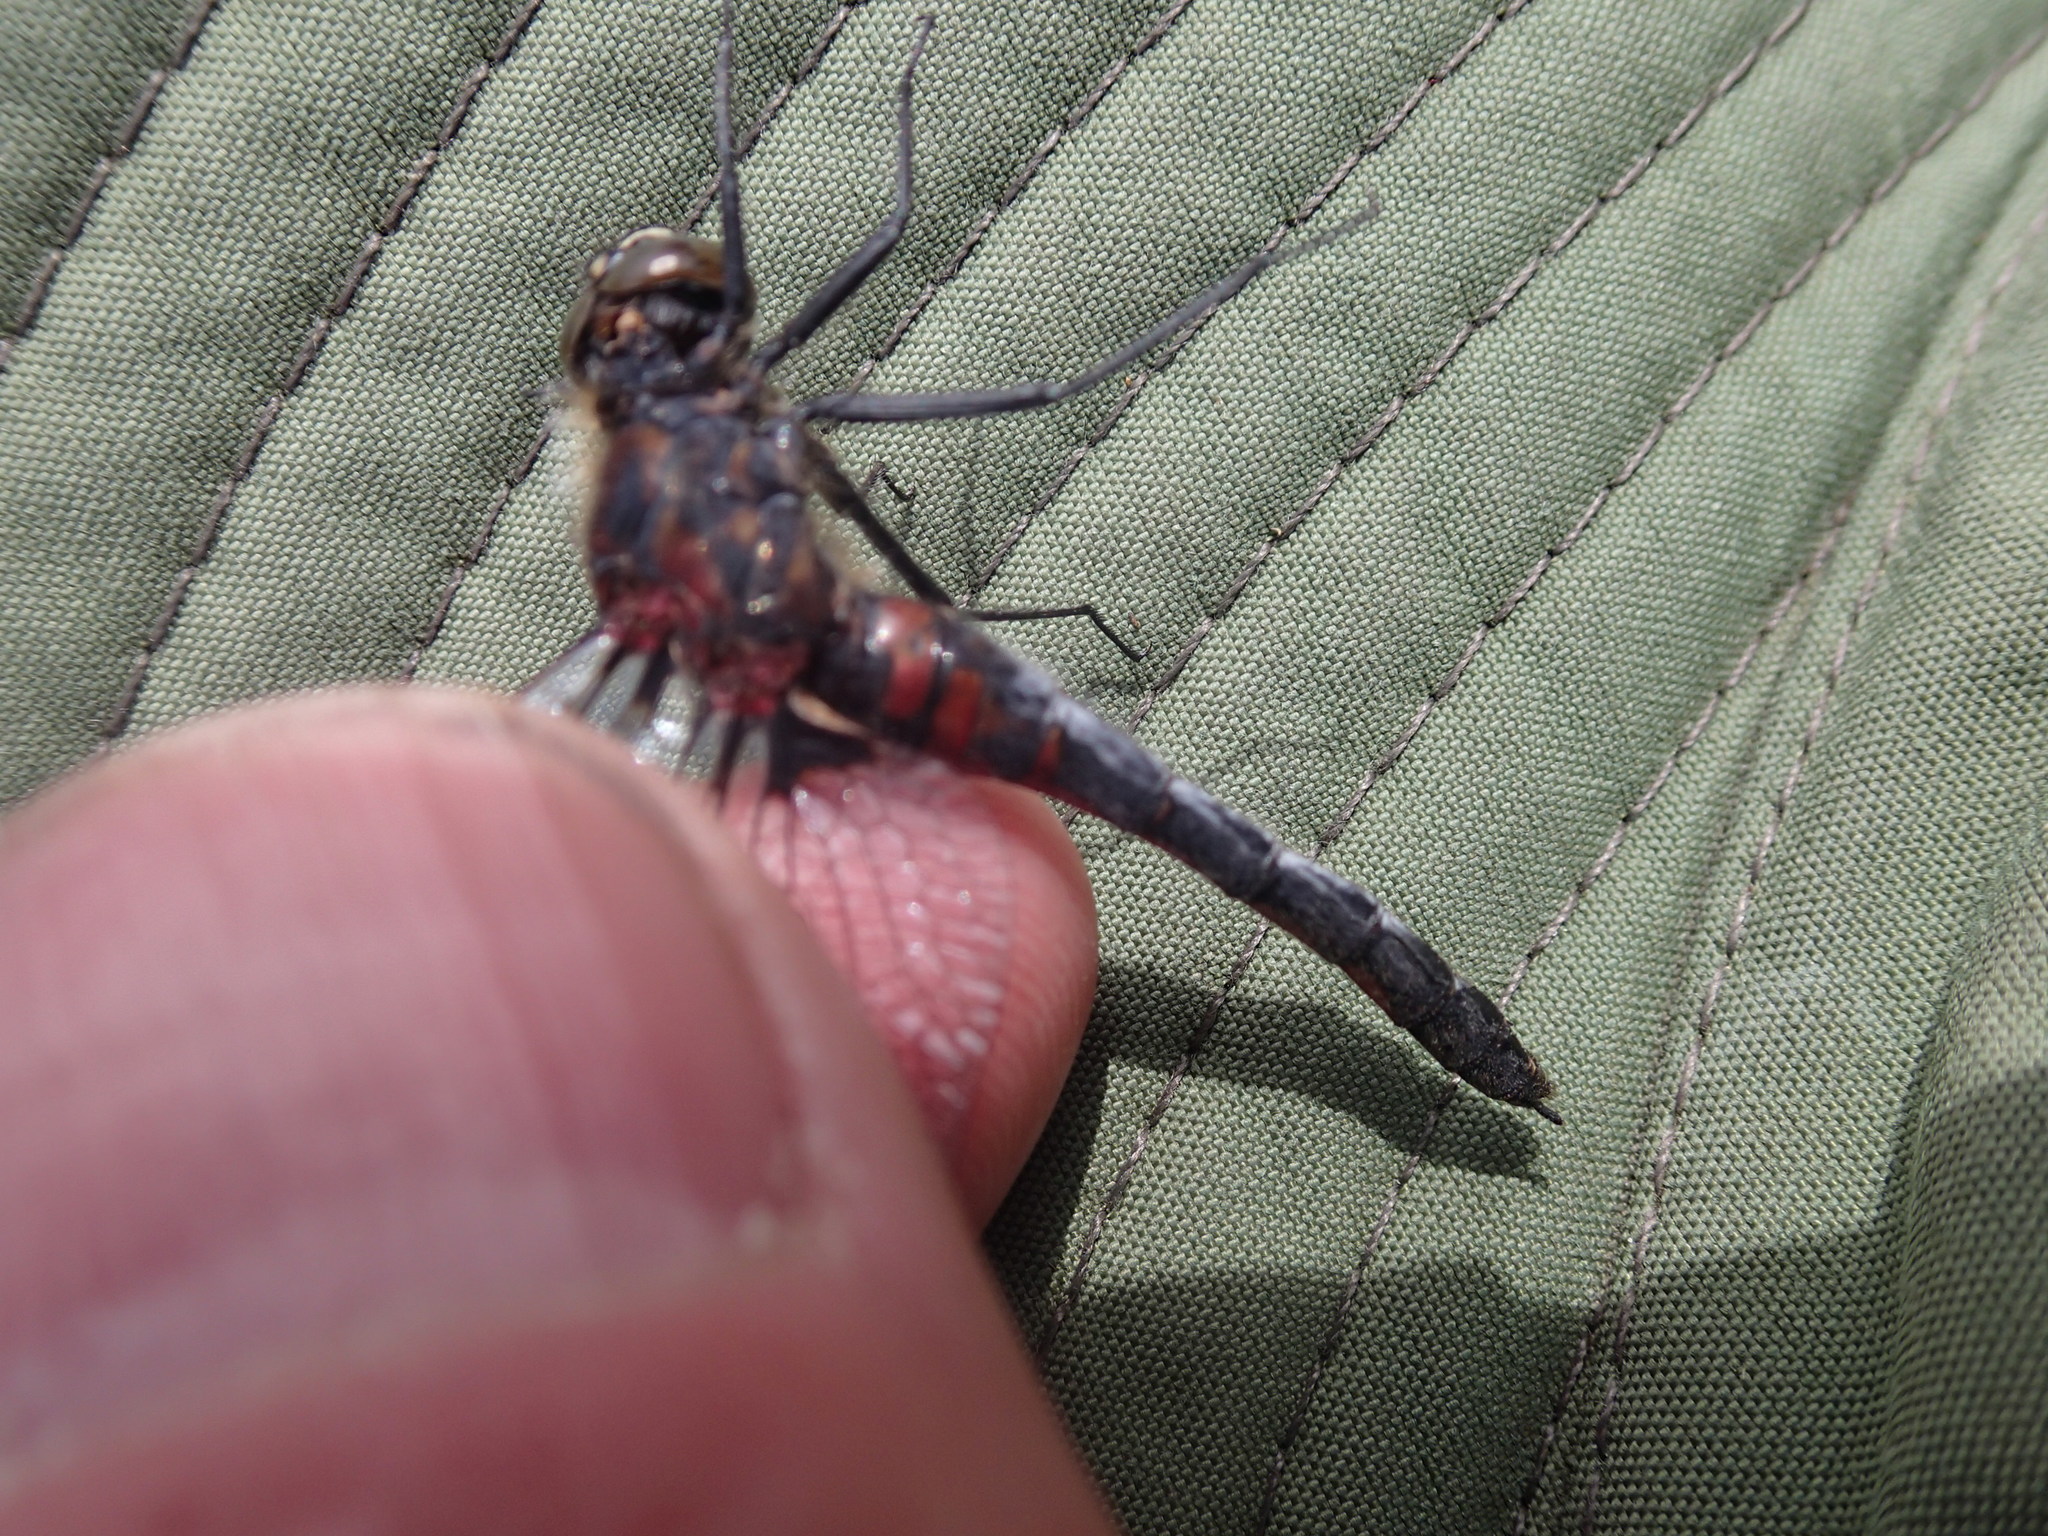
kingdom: Animalia
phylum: Arthropoda
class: Insecta
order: Odonata
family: Libellulidae
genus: Leucorrhinia
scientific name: Leucorrhinia hudsonica
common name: Hudsonian whiteface
